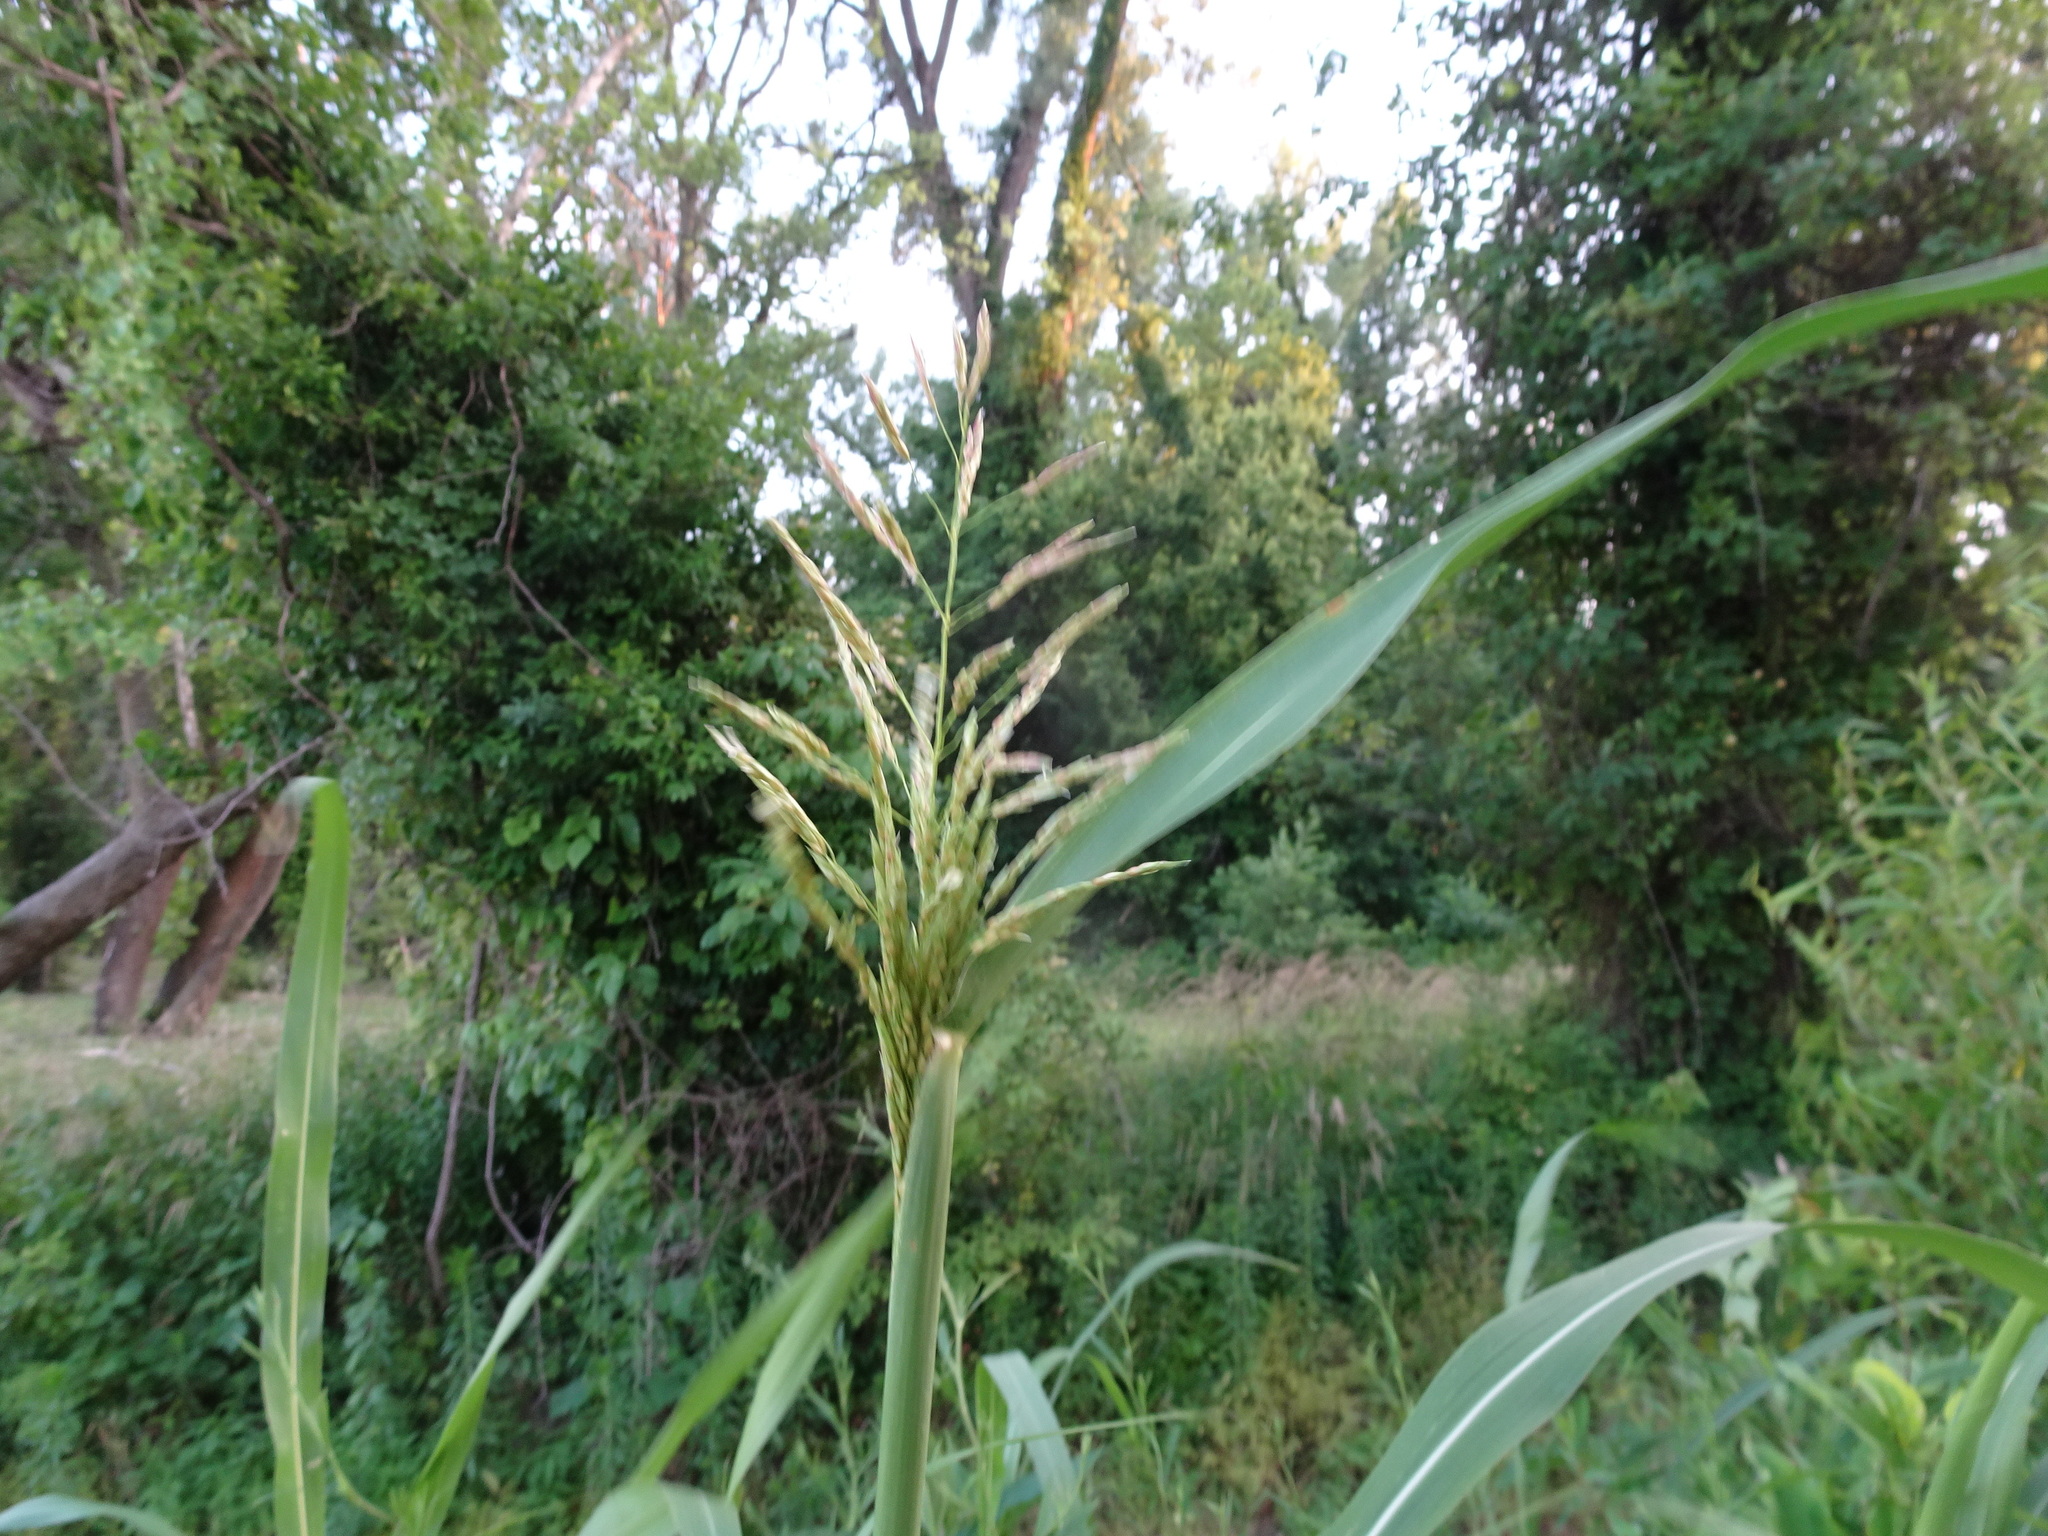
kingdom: Plantae
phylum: Tracheophyta
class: Liliopsida
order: Poales
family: Poaceae
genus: Sorghum
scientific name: Sorghum halepense
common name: Johnson-grass
